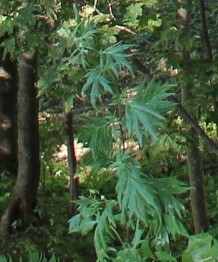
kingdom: Plantae
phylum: Tracheophyta
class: Magnoliopsida
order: Asterales
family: Asteraceae
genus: Artemisia
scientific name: Artemisia vulgaris
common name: Mugwort
